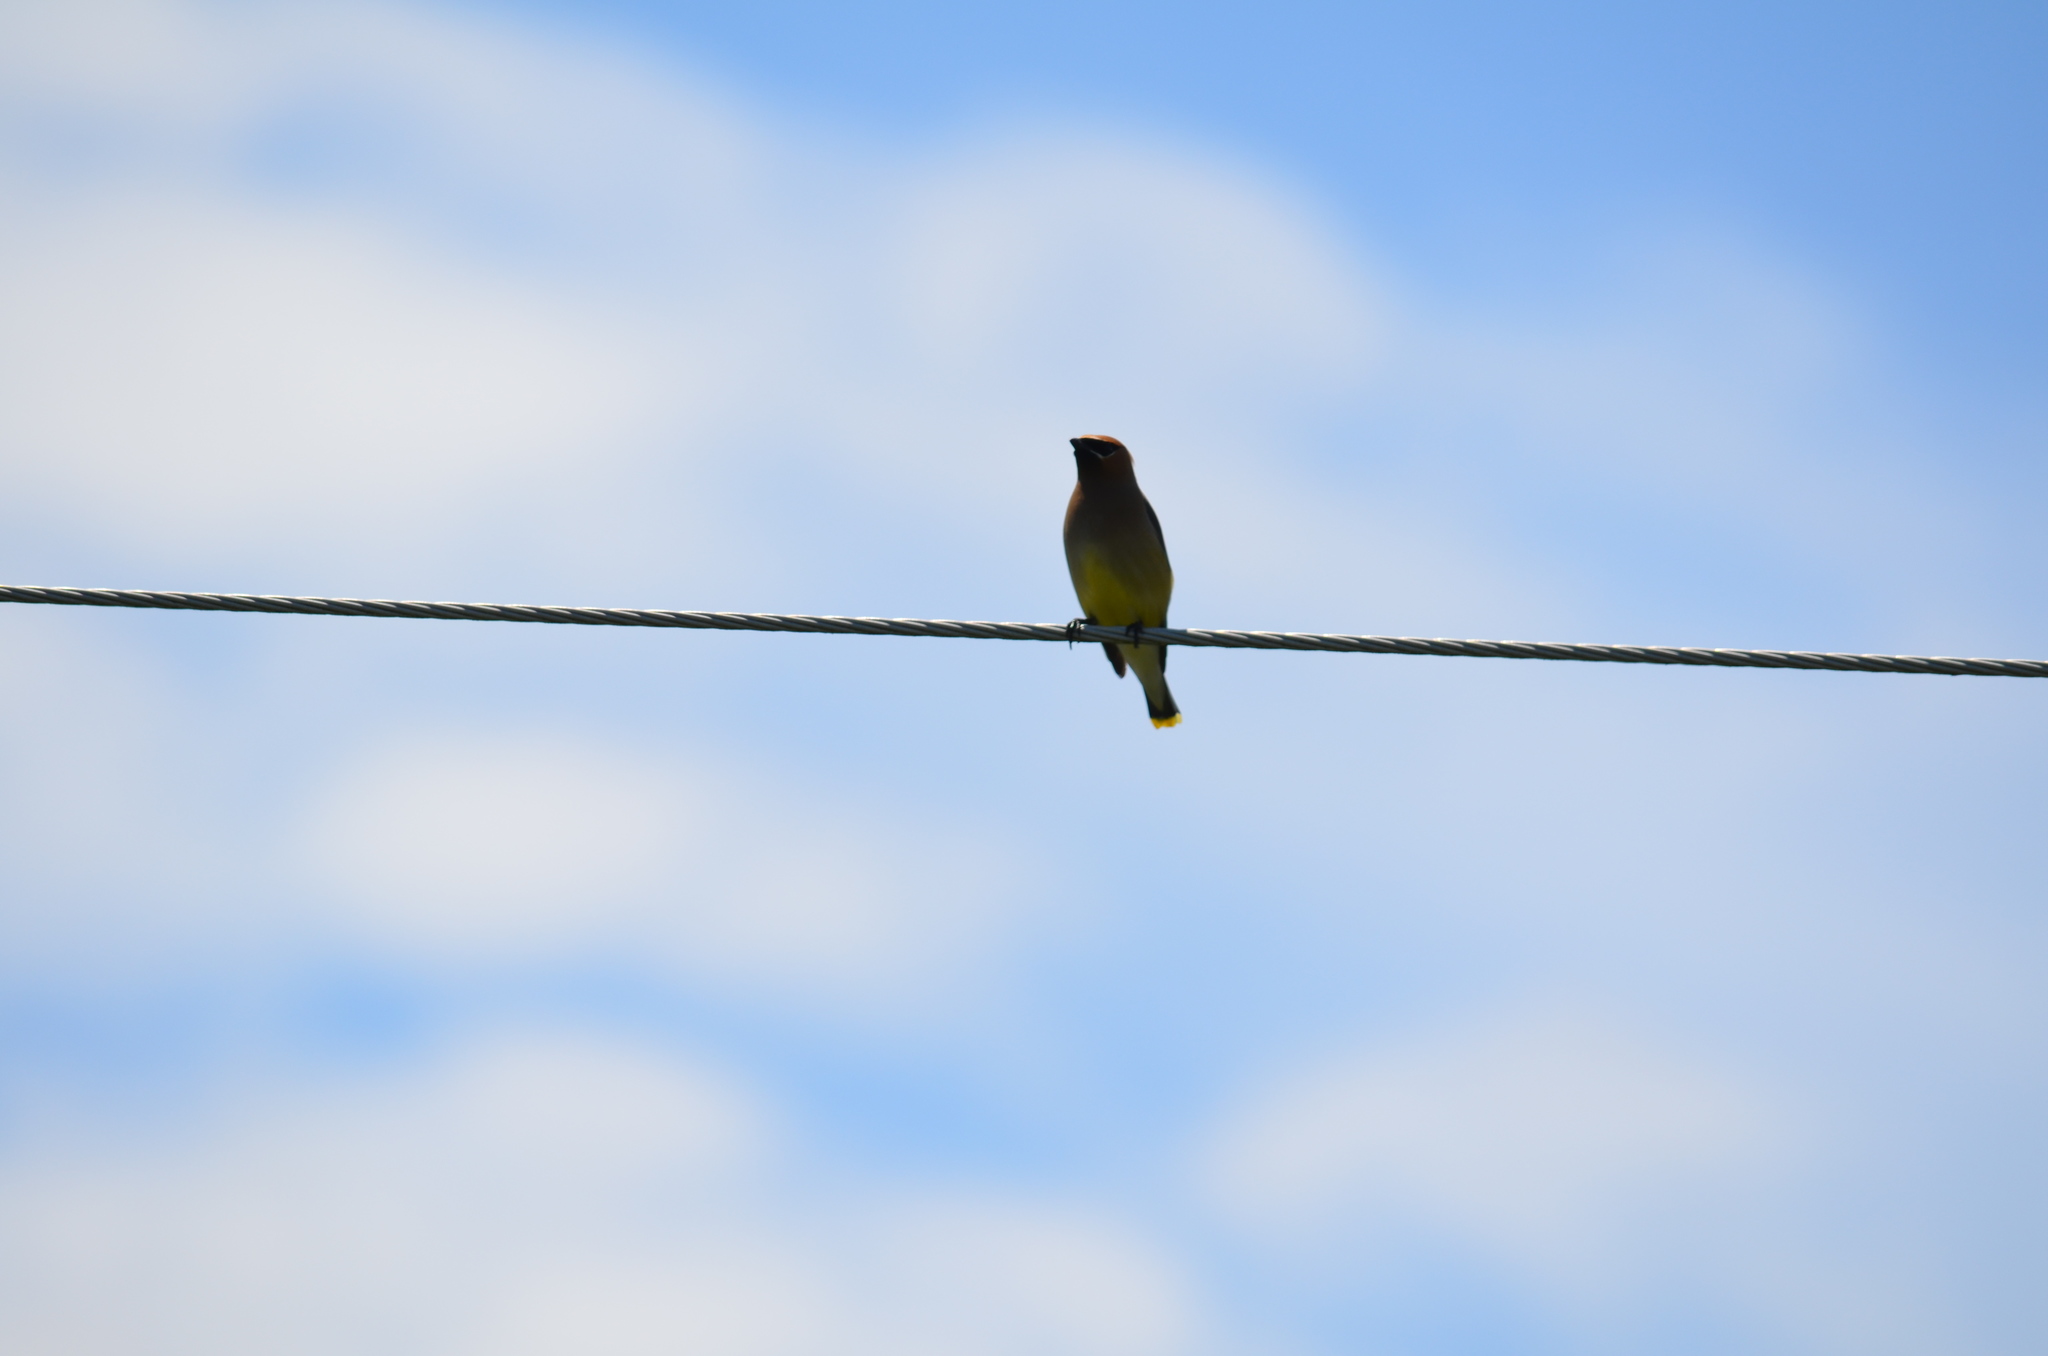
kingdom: Animalia
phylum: Chordata
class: Aves
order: Passeriformes
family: Bombycillidae
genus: Bombycilla
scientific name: Bombycilla cedrorum
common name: Cedar waxwing
